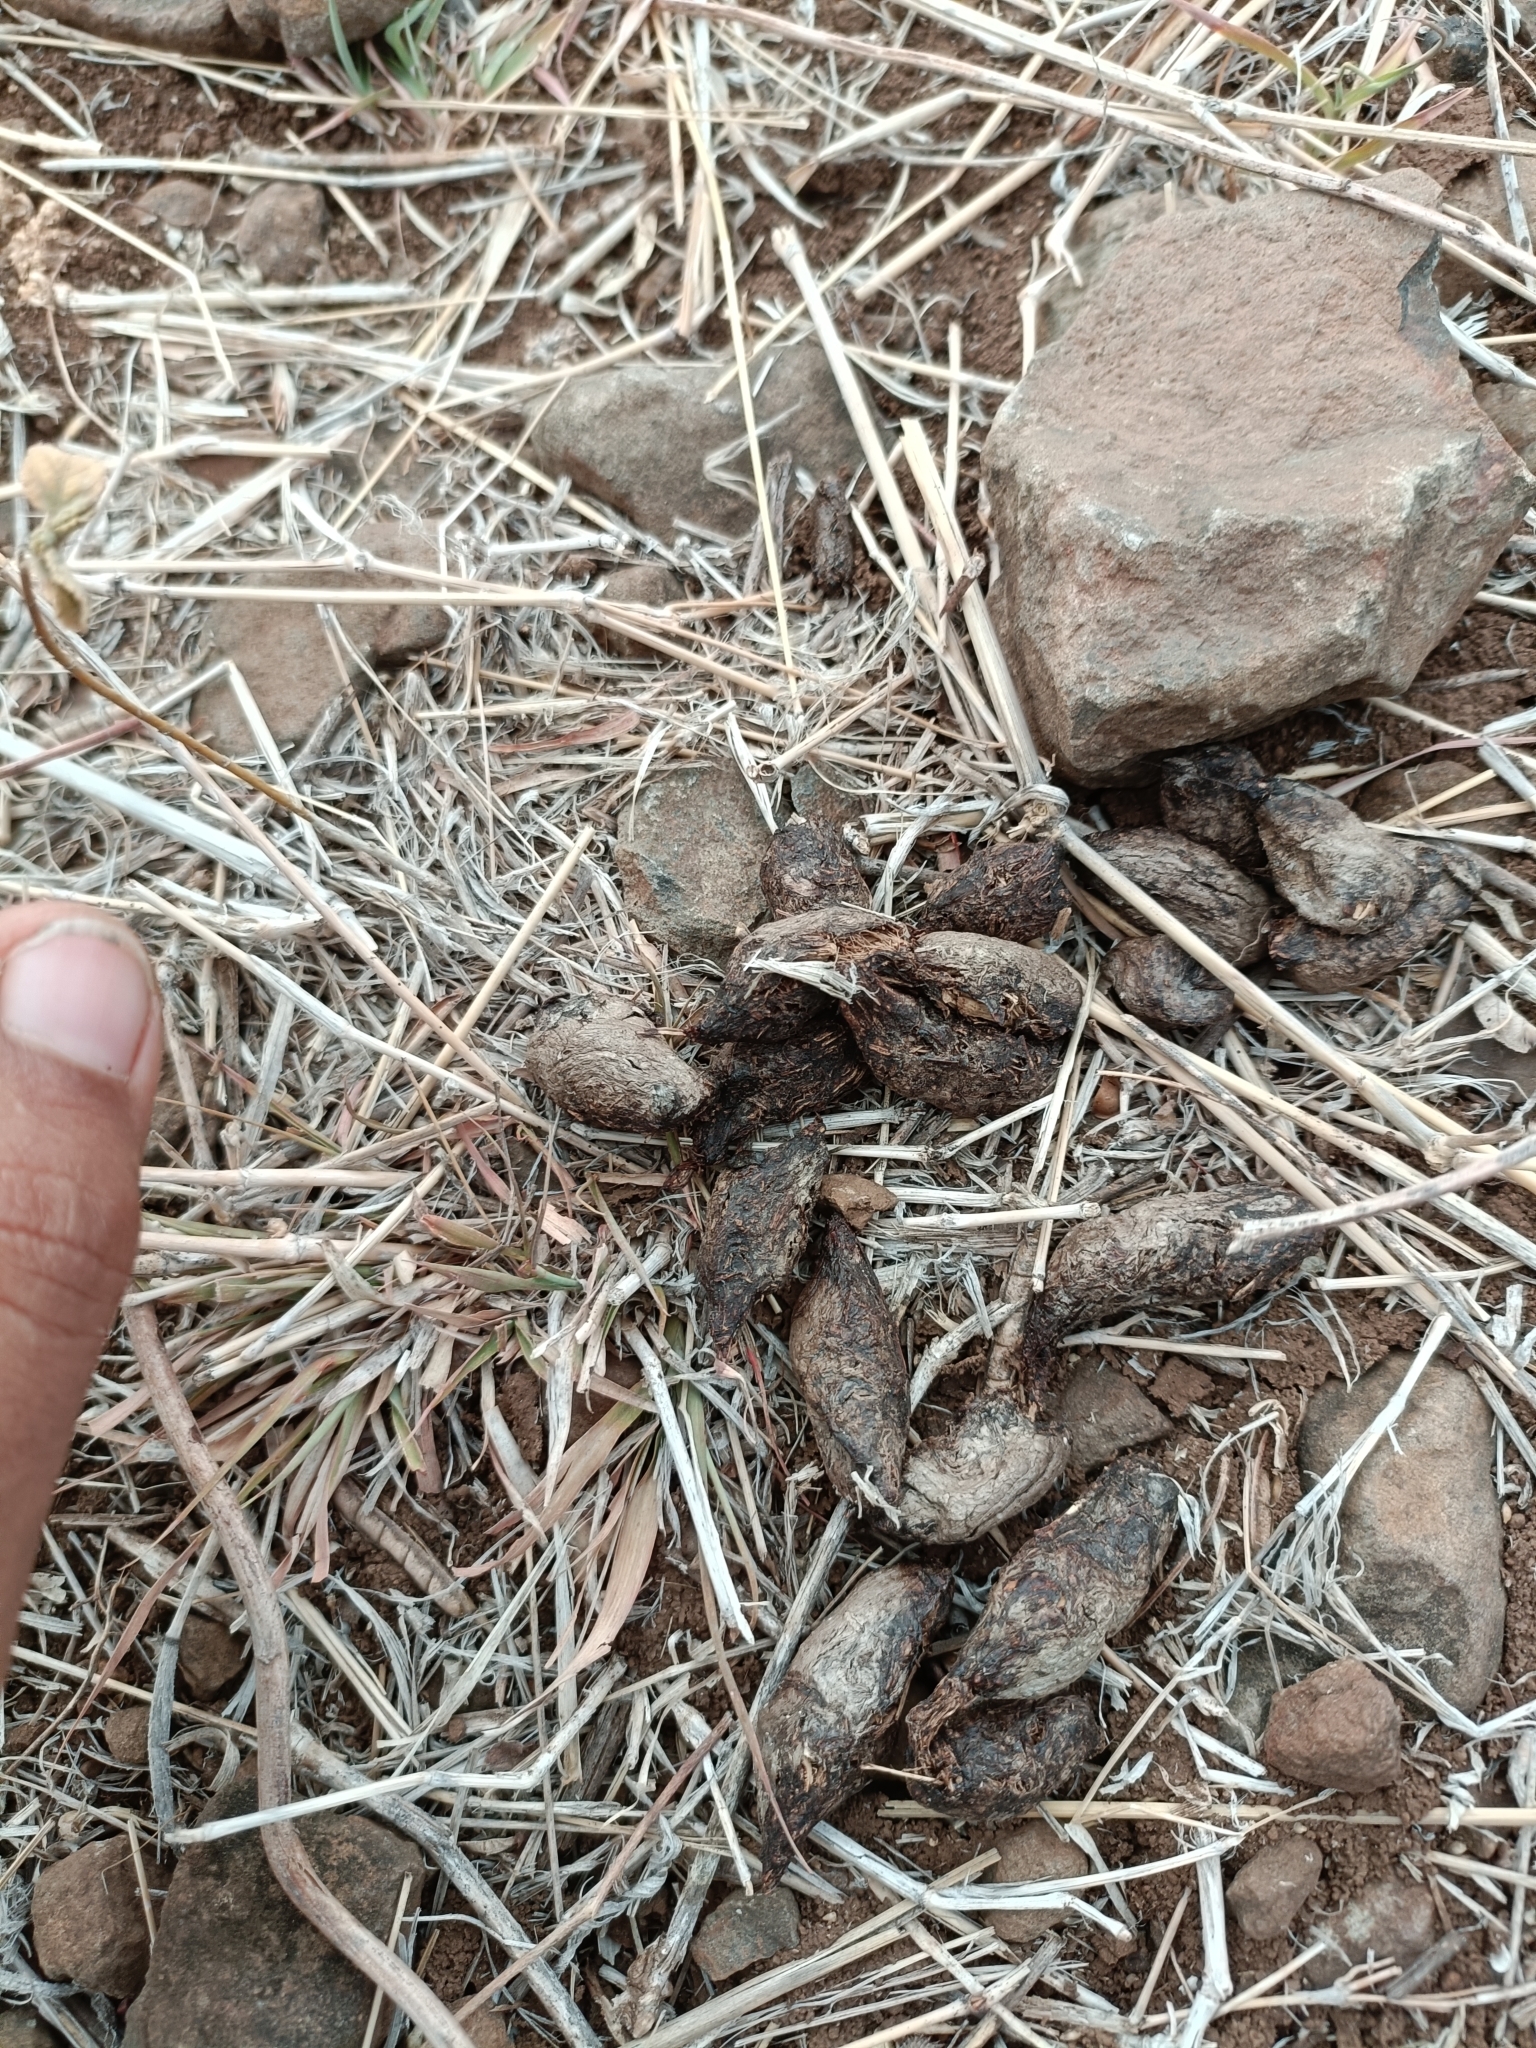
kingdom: Animalia
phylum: Chordata
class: Mammalia
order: Rodentia
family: Hystricidae
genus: Hystrix
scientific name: Hystrix indica
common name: Indian crested porcupine
